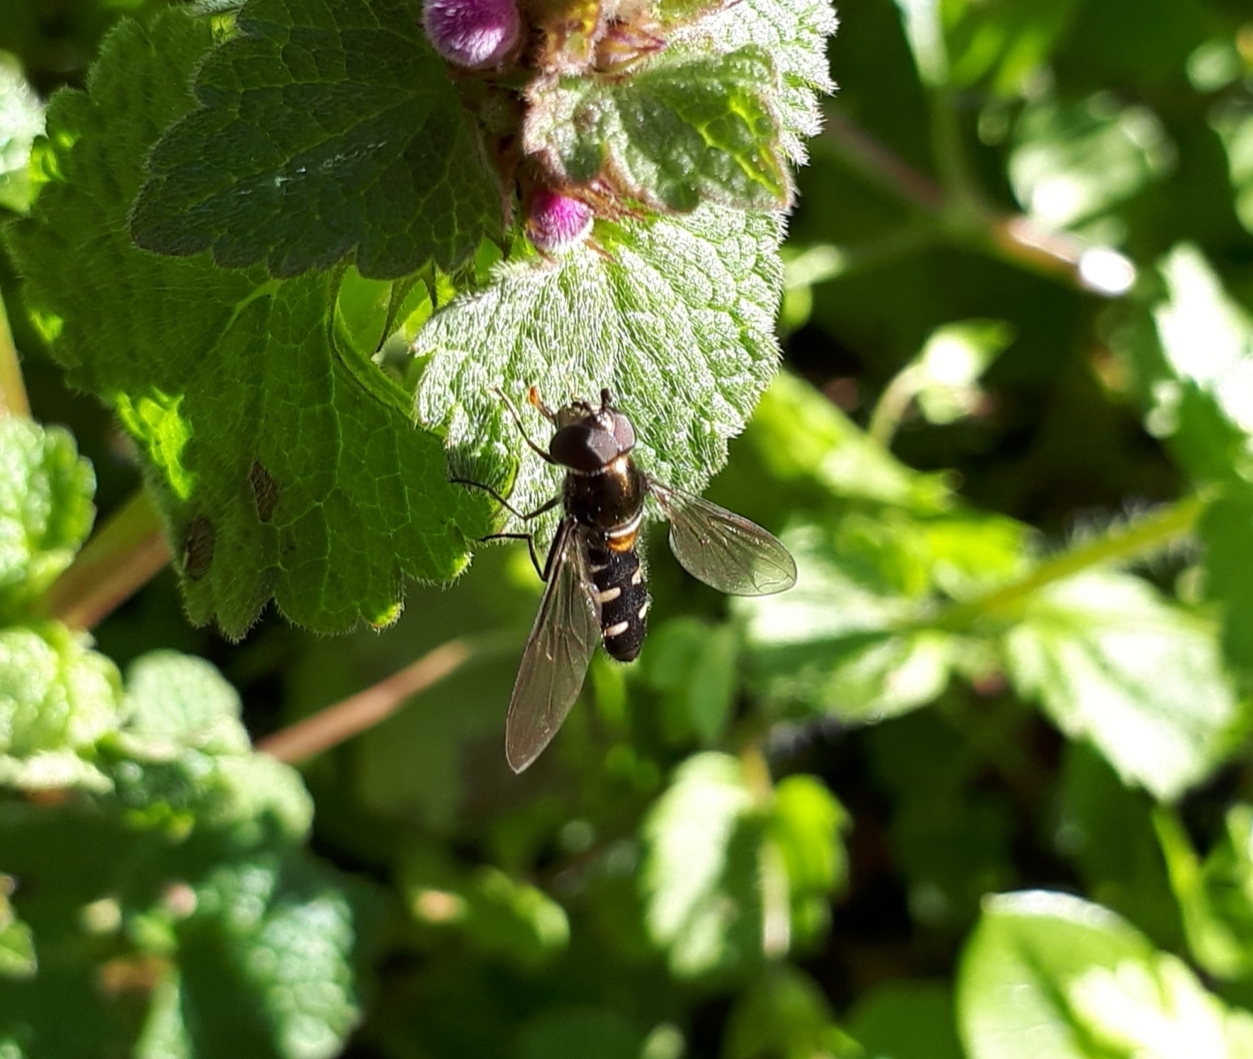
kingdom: Animalia
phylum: Arthropoda
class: Insecta
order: Diptera
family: Syrphidae
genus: Melangyna
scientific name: Melangyna novaezelandiae
